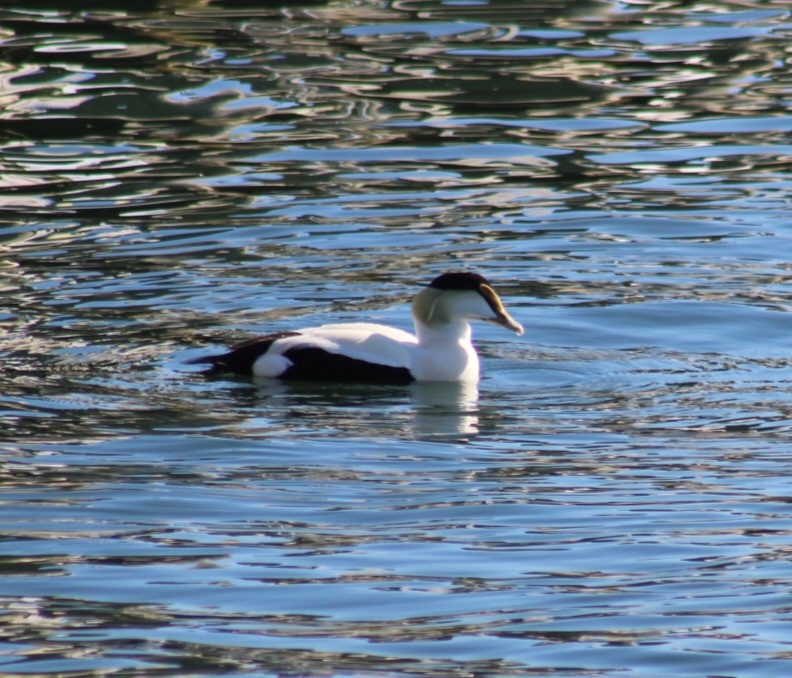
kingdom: Animalia
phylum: Chordata
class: Aves
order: Anseriformes
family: Anatidae
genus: Somateria
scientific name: Somateria mollissima
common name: Common eider
